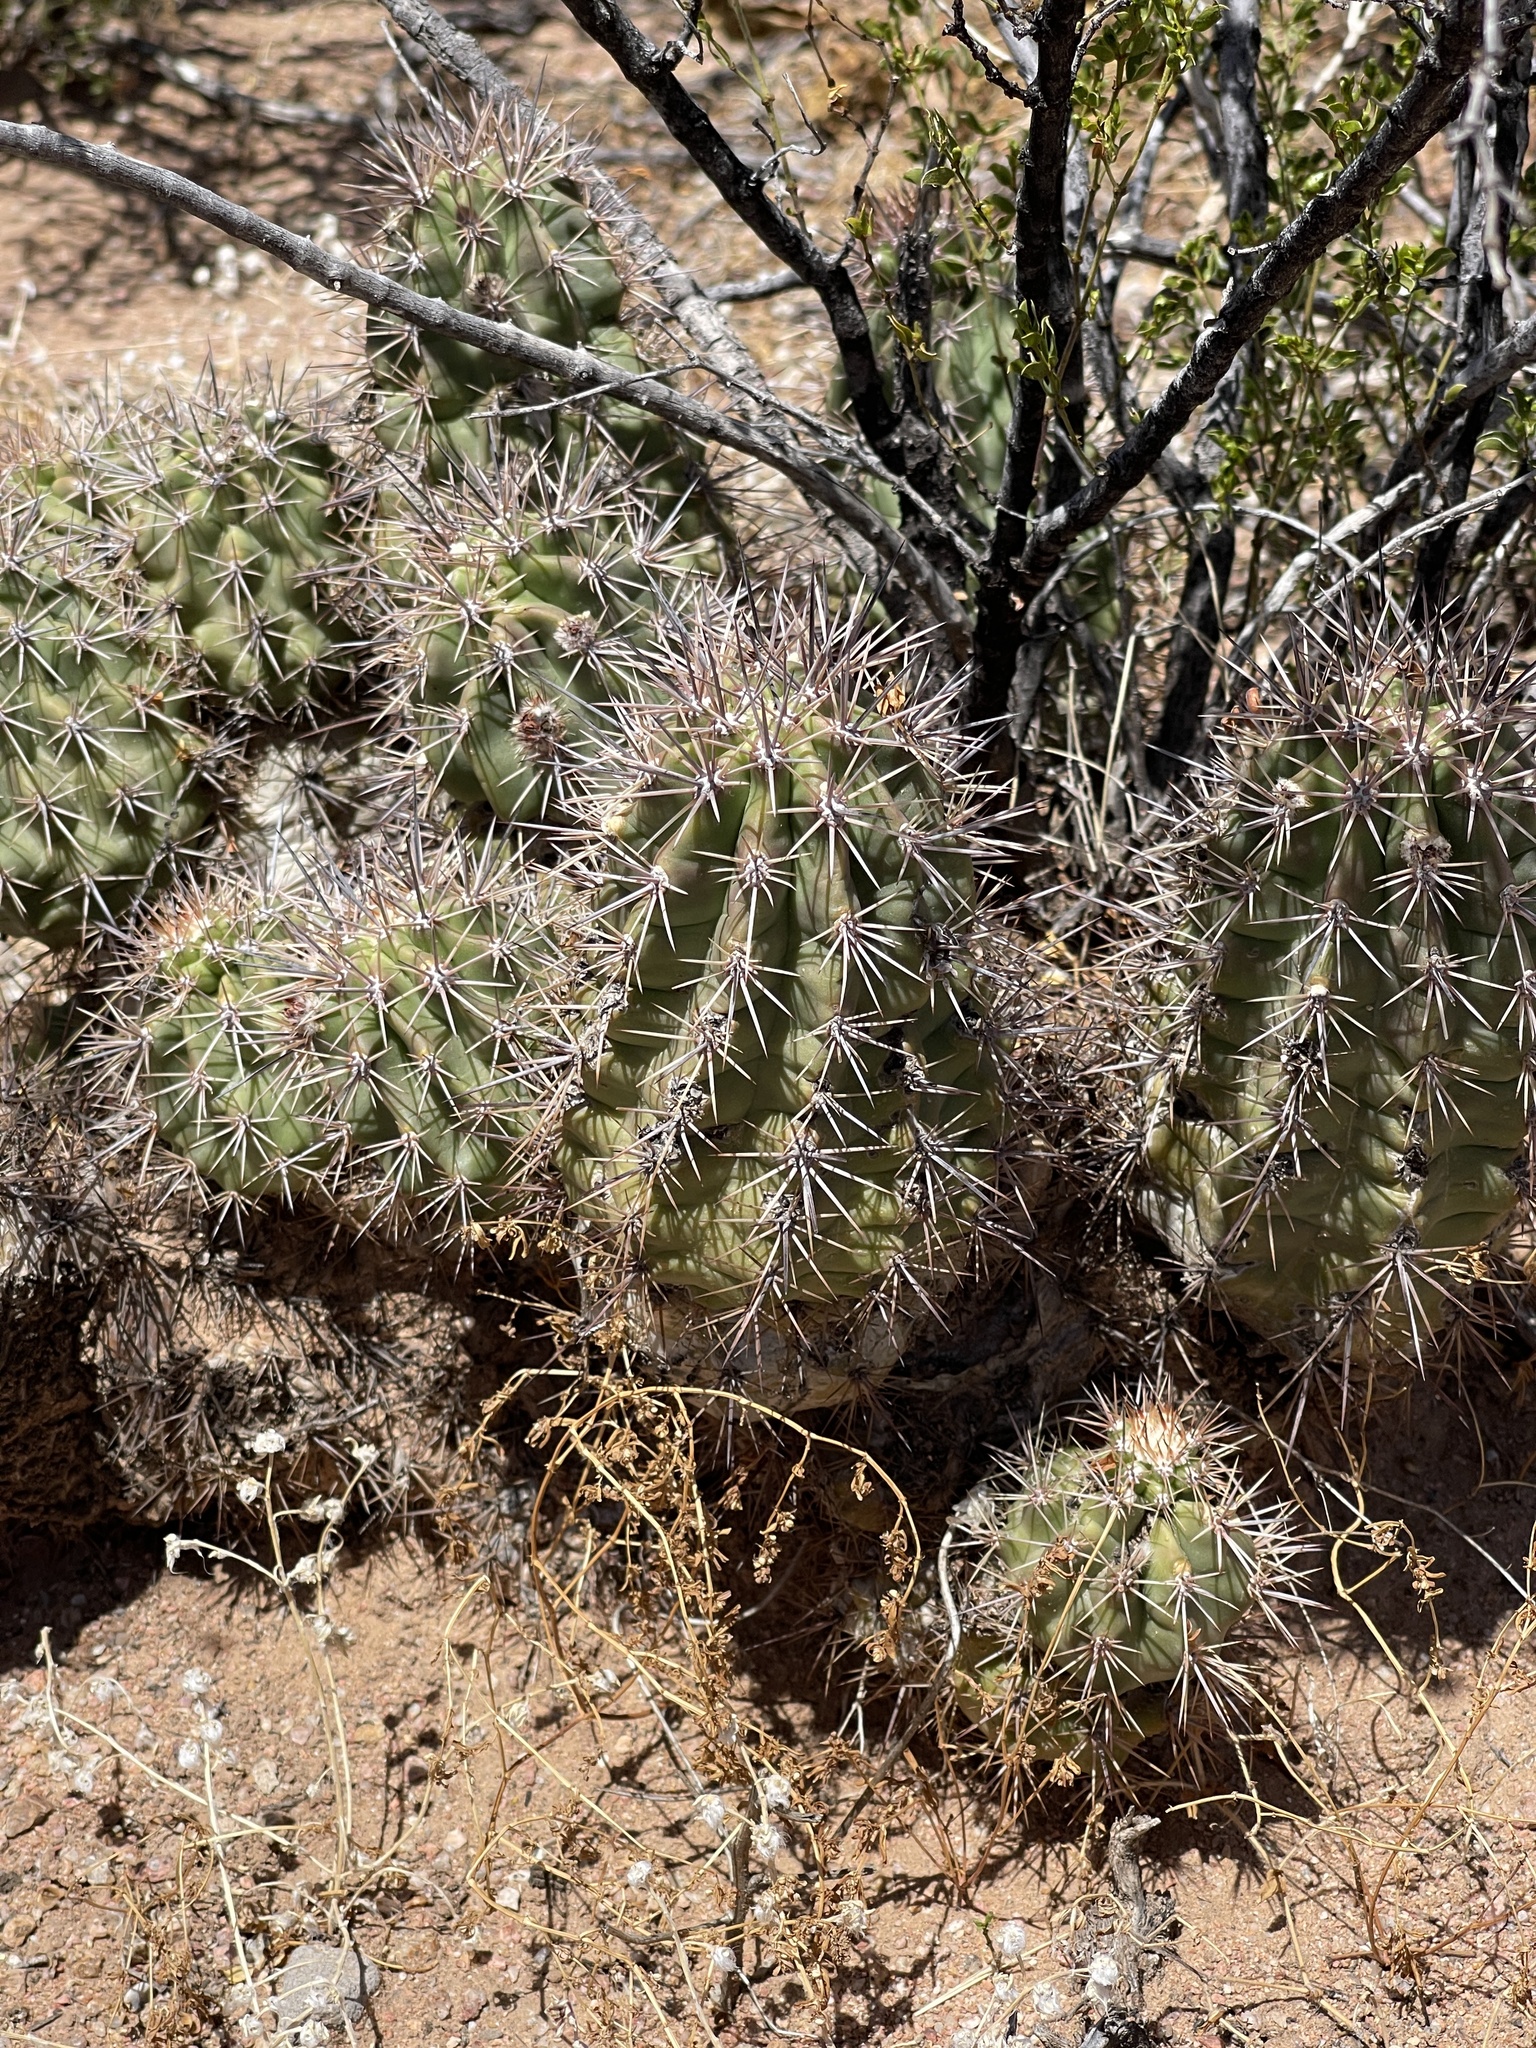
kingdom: Plantae
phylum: Tracheophyta
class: Magnoliopsida
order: Caryophyllales
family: Cactaceae
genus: Echinocereus
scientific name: Echinocereus coccineus
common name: Scarlet hedgehog cactus
